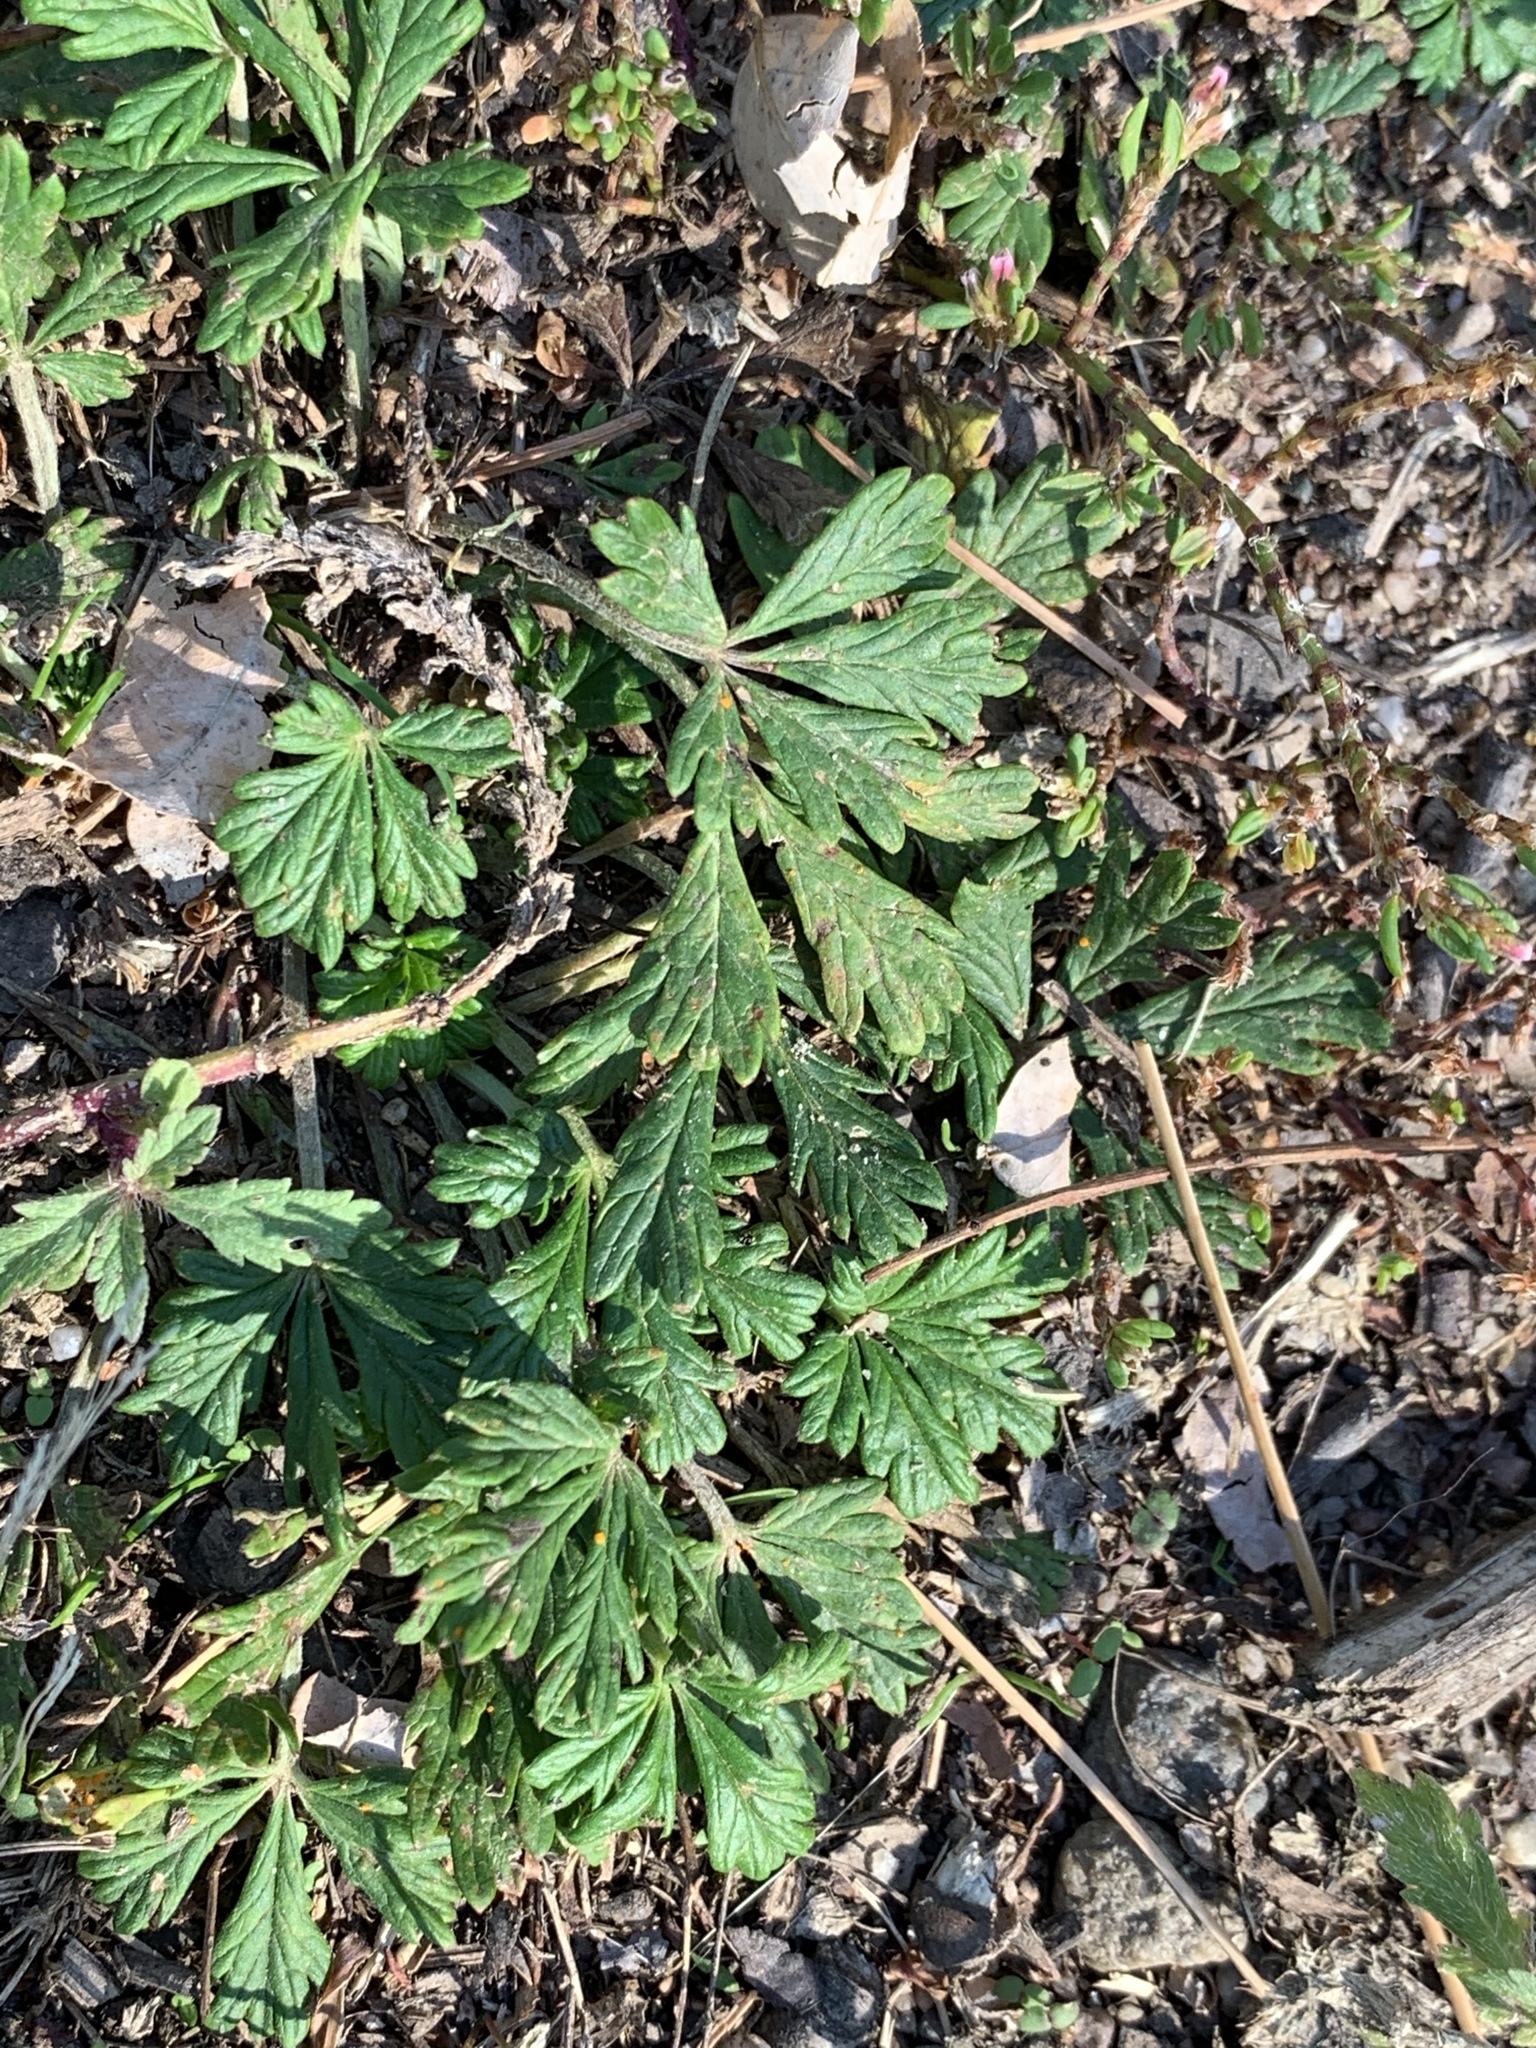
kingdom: Plantae
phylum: Tracheophyta
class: Magnoliopsida
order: Rosales
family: Rosaceae
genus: Potentilla
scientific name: Potentilla argentea
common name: Hoary cinquefoil
